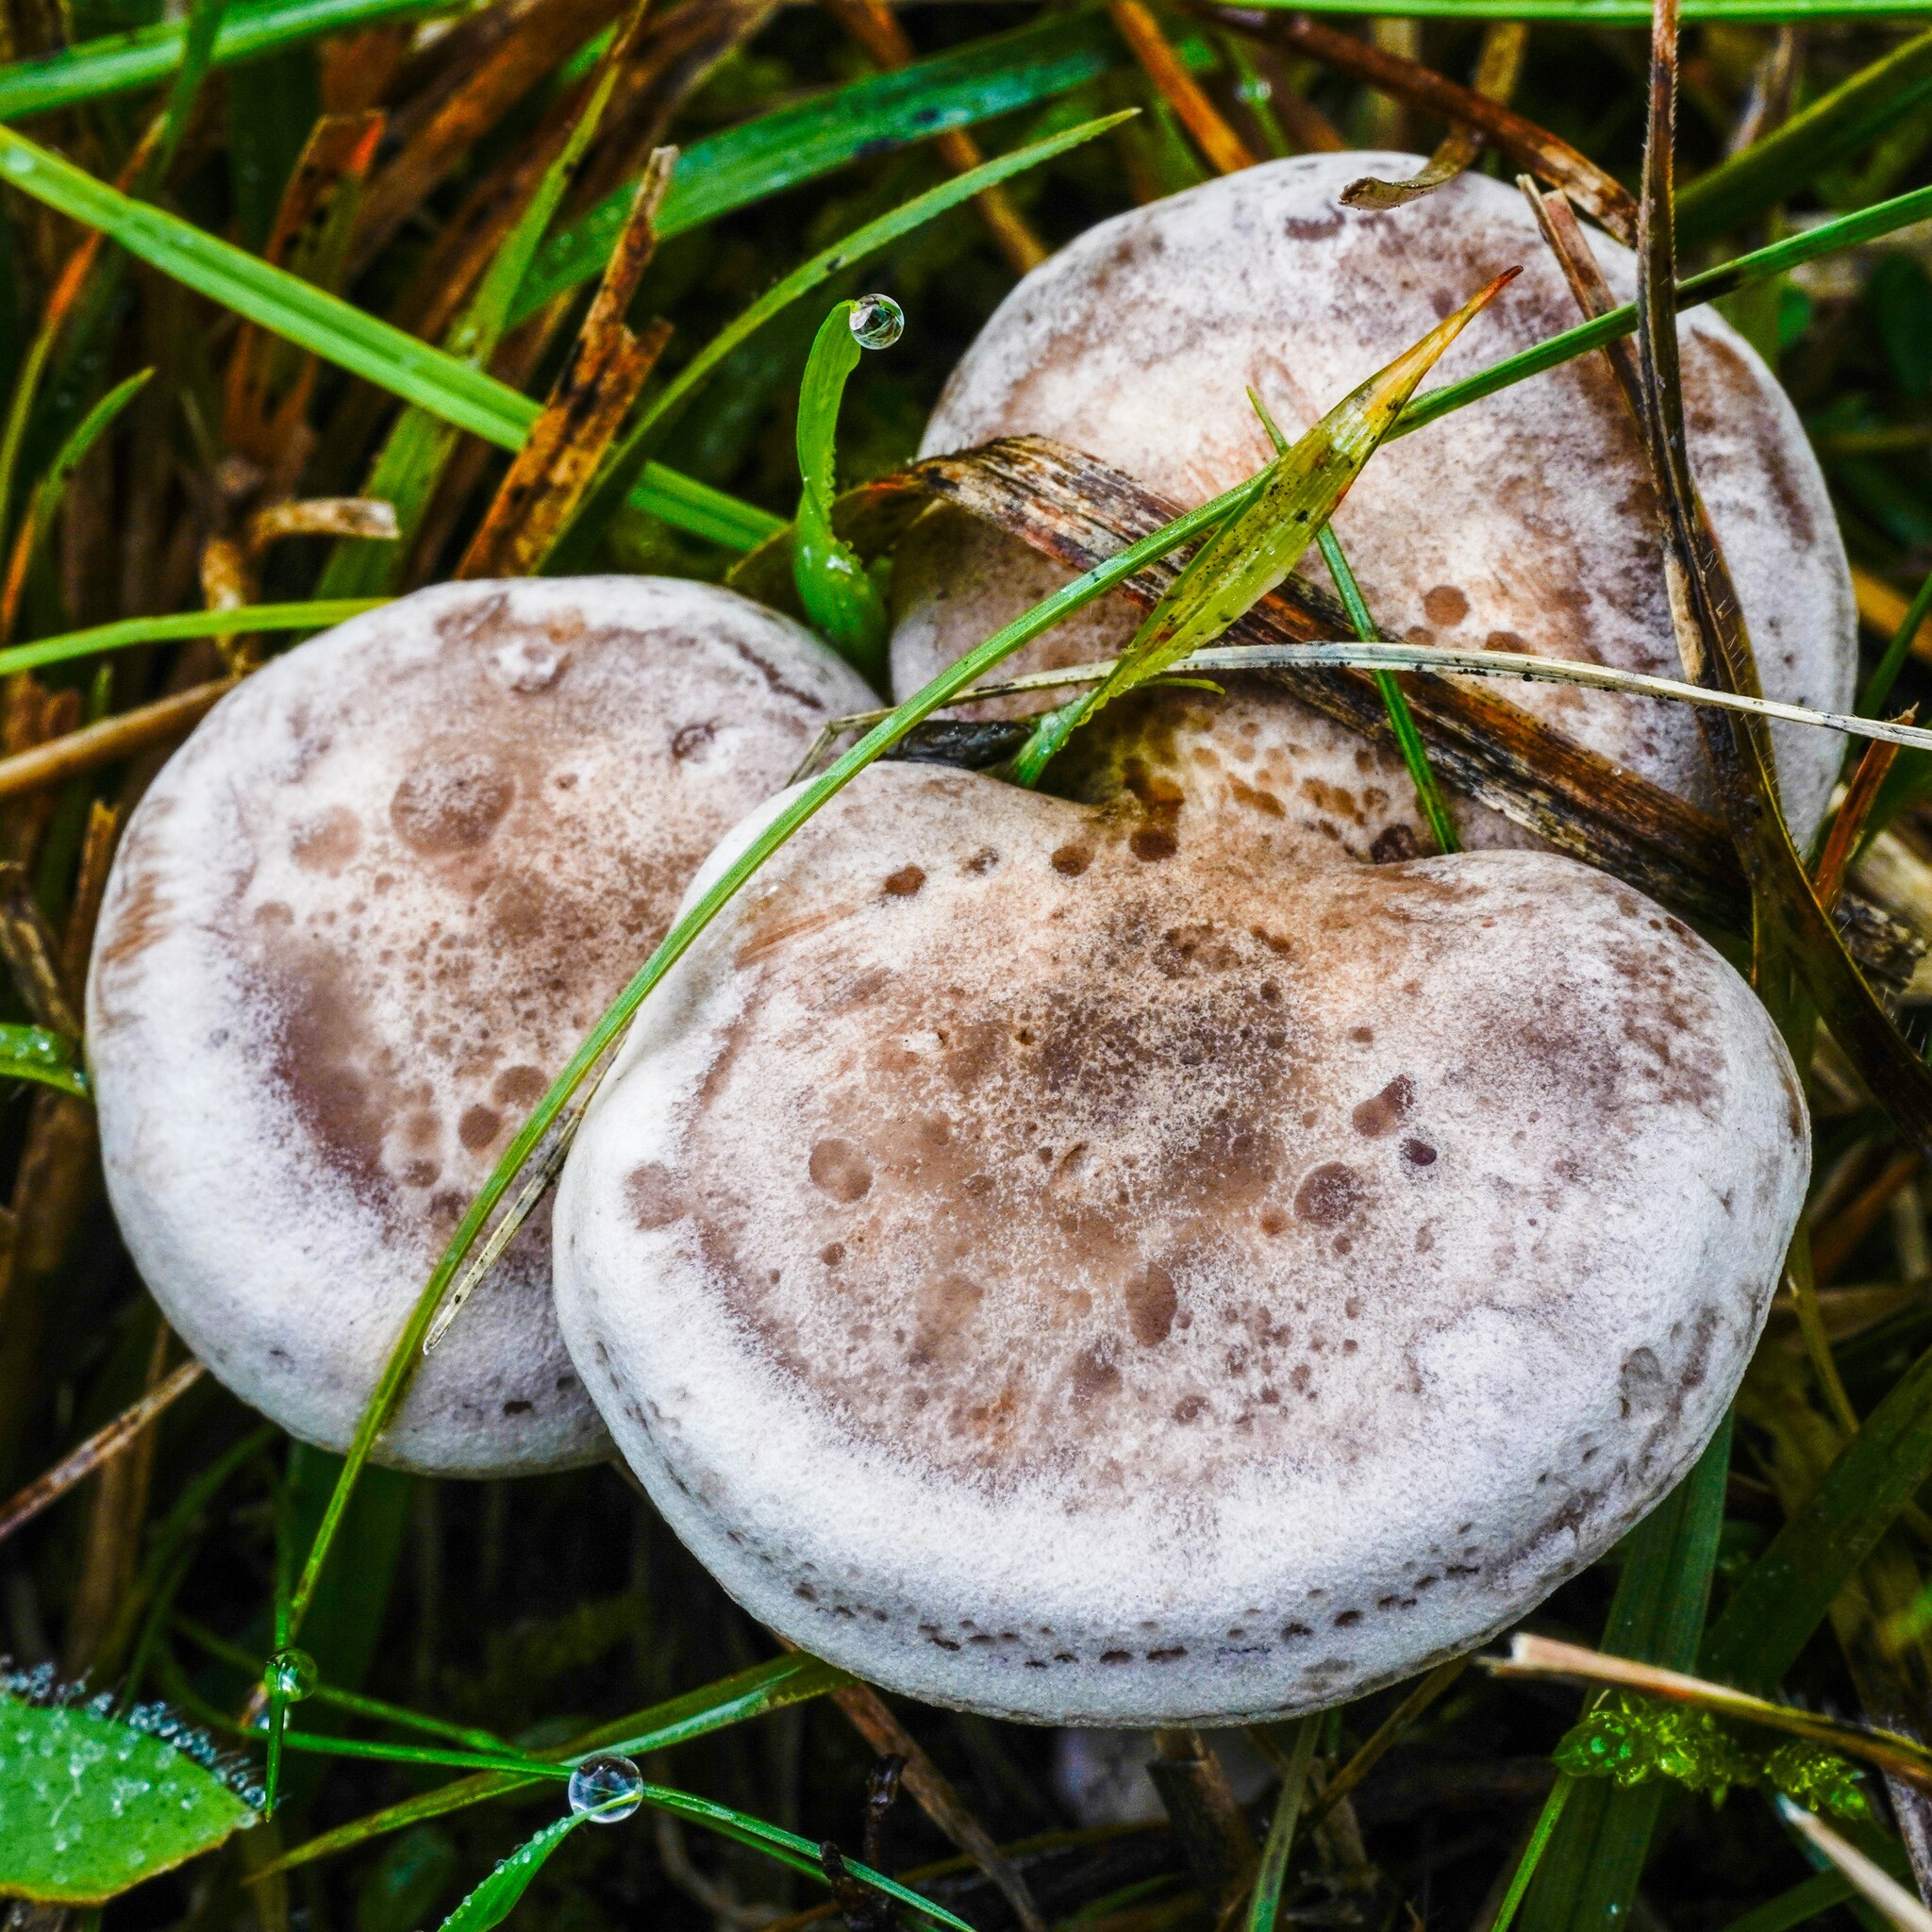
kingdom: Fungi
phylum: Basidiomycota
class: Agaricomycetes
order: Agaricales
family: Tricholomataceae
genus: Lepista
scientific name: Lepista rickenii
